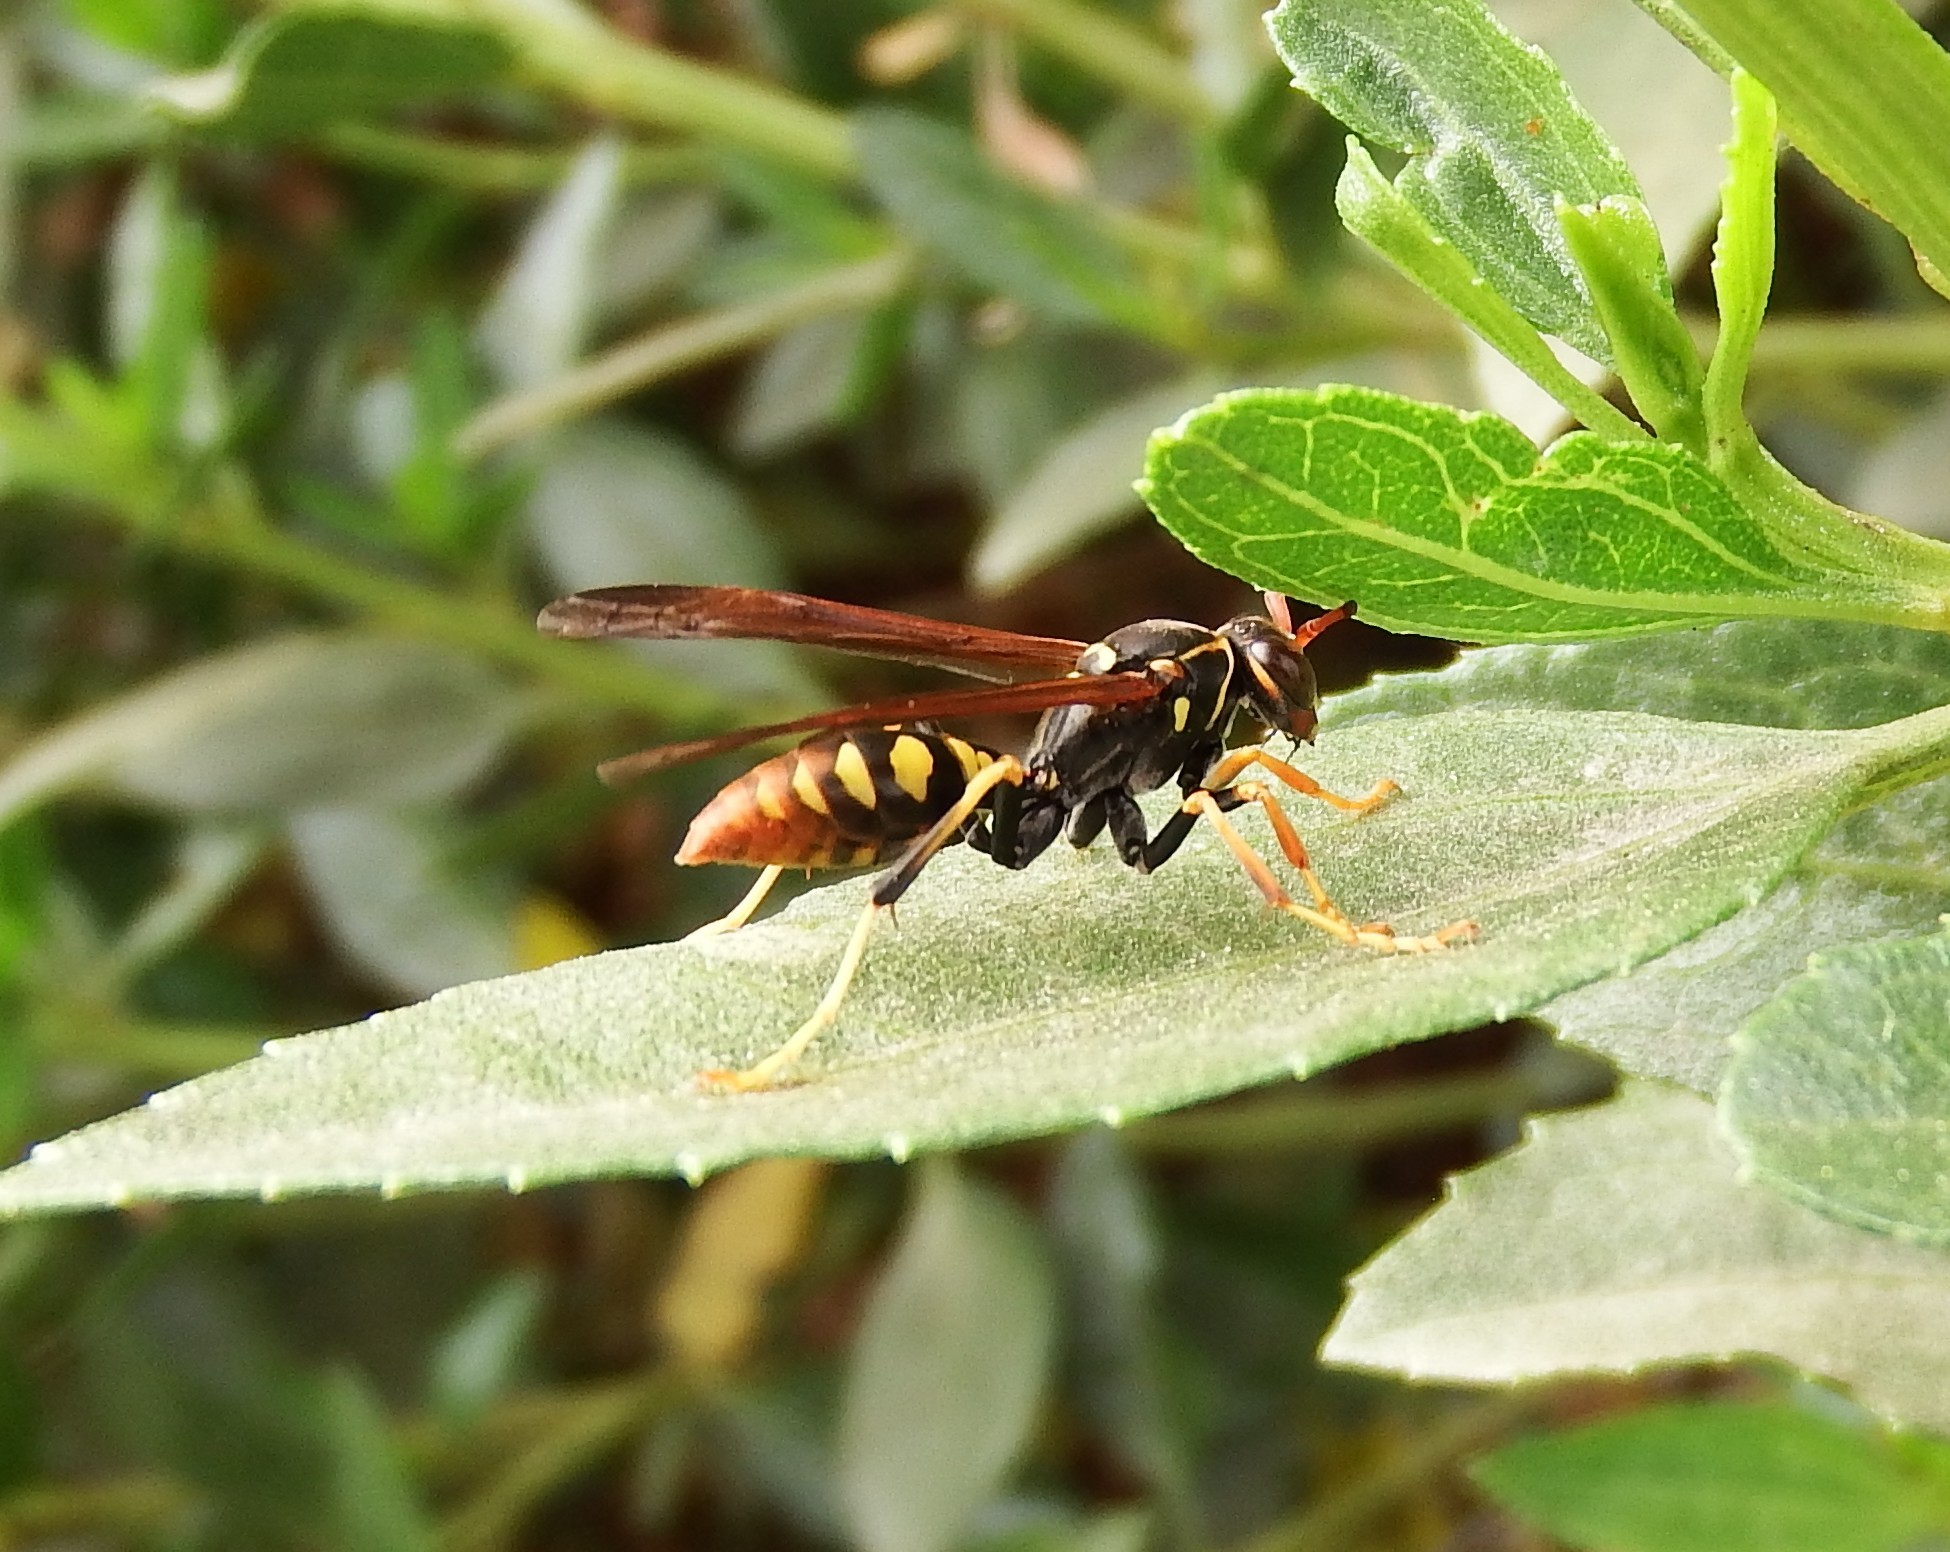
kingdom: Animalia
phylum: Arthropoda
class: Insecta
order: Hymenoptera
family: Eumenidae
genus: Polistes
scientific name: Polistes weyrauchorum
